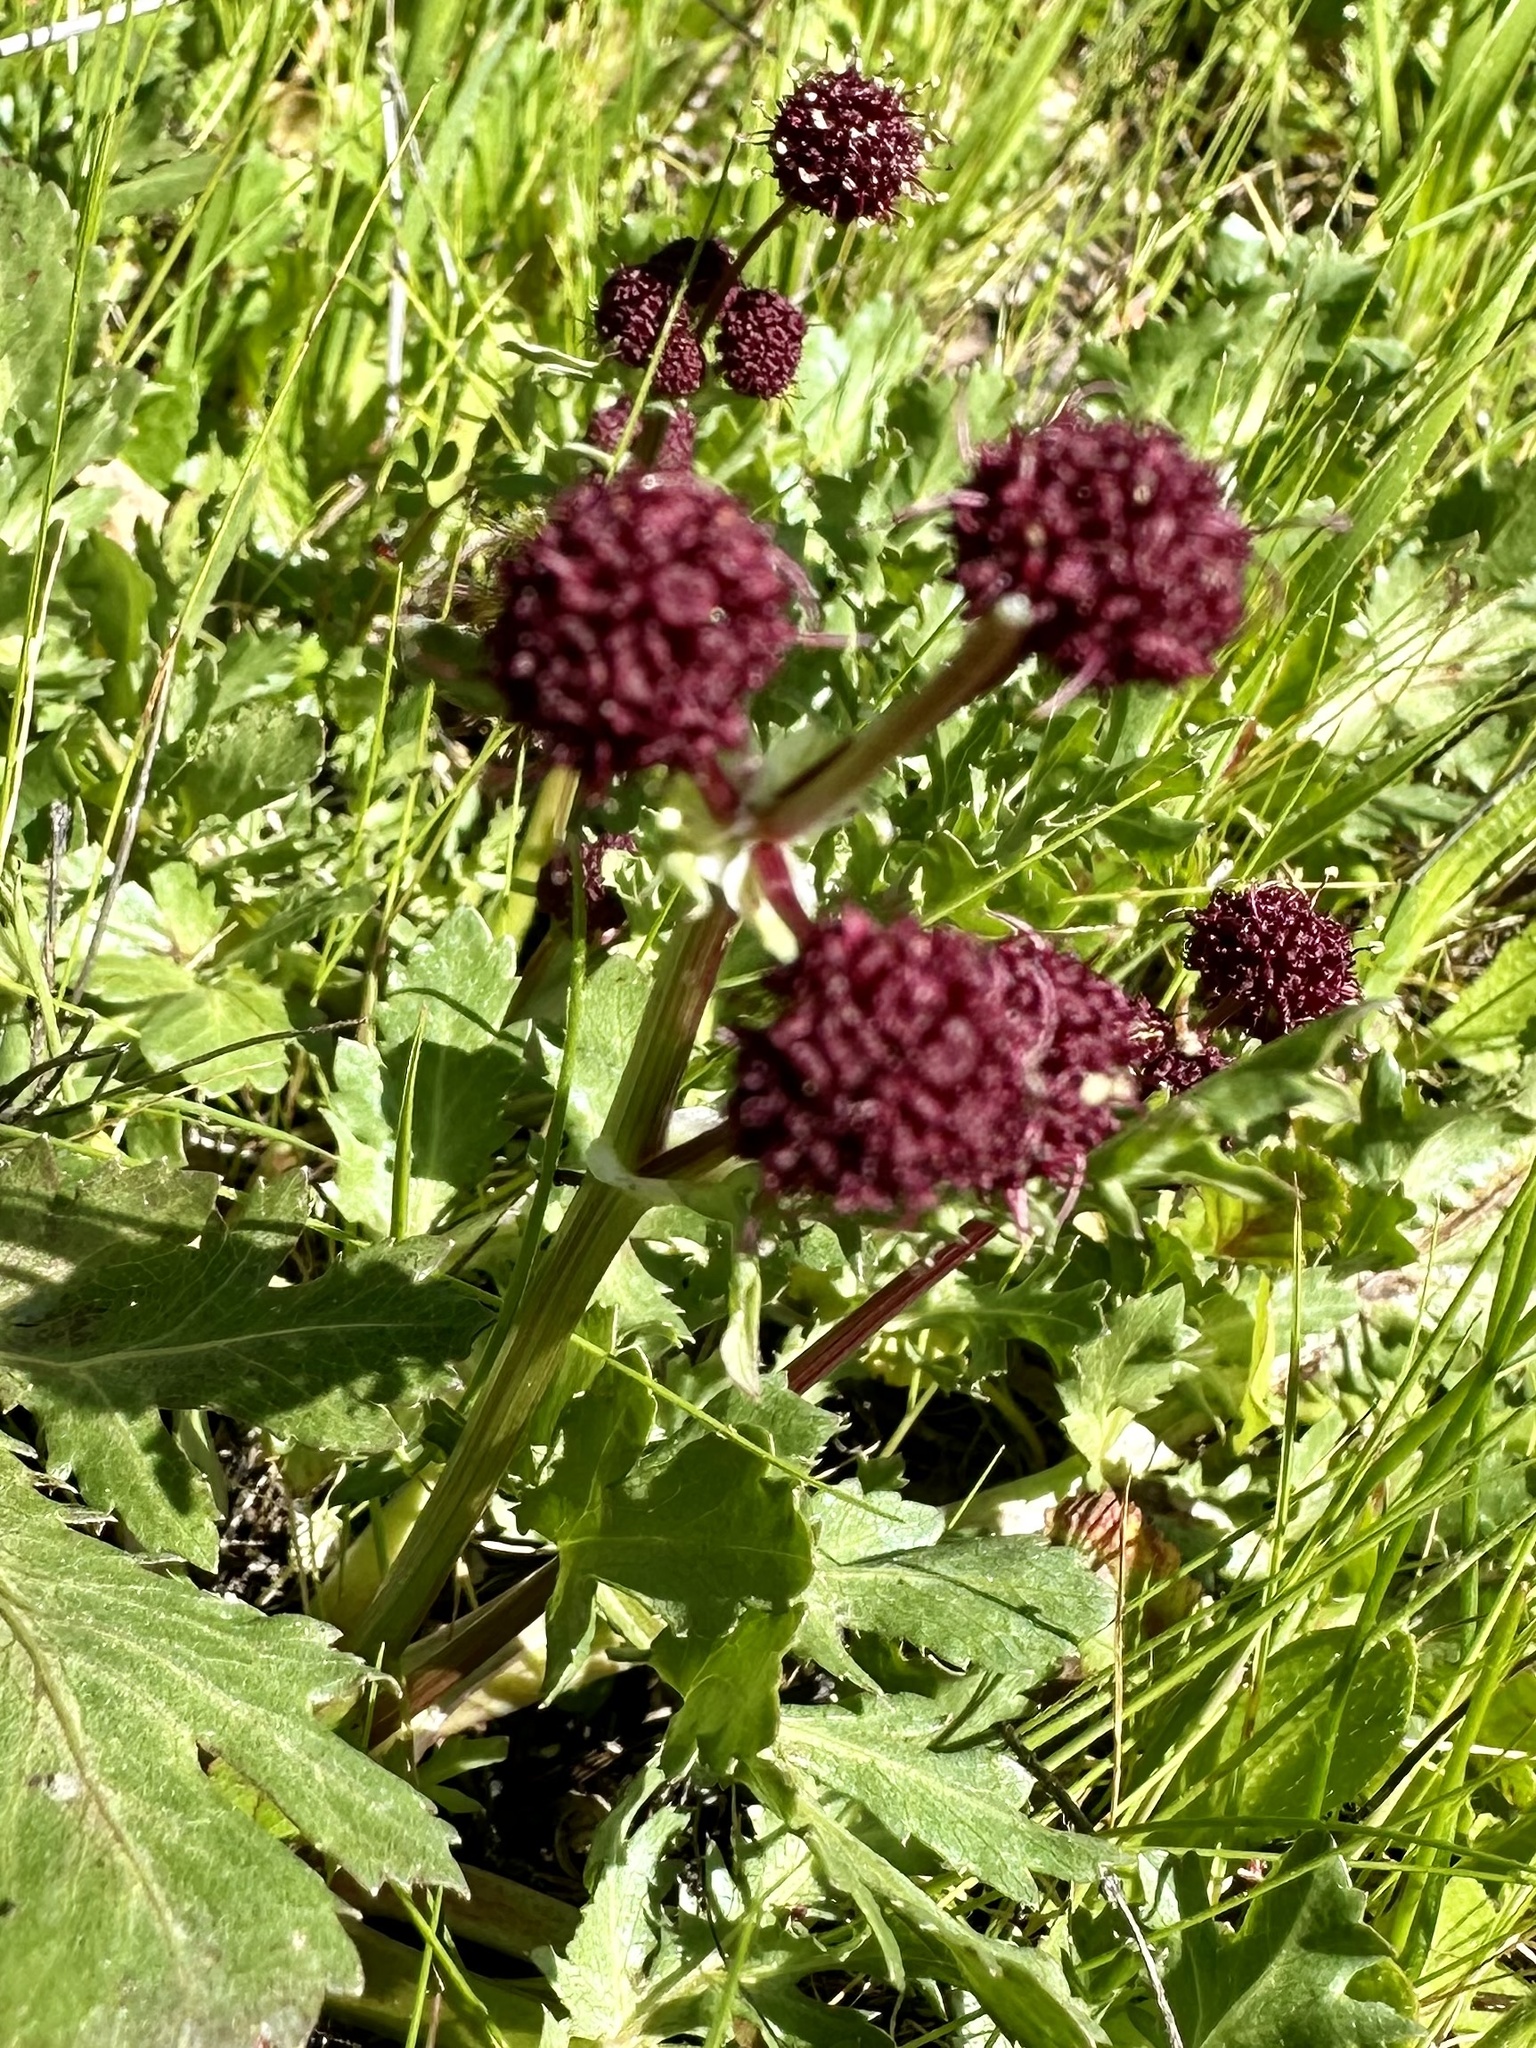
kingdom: Plantae
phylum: Tracheophyta
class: Magnoliopsida
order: Apiales
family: Apiaceae
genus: Sanicula
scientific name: Sanicula bipinnatifida
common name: Shoe-buttons
